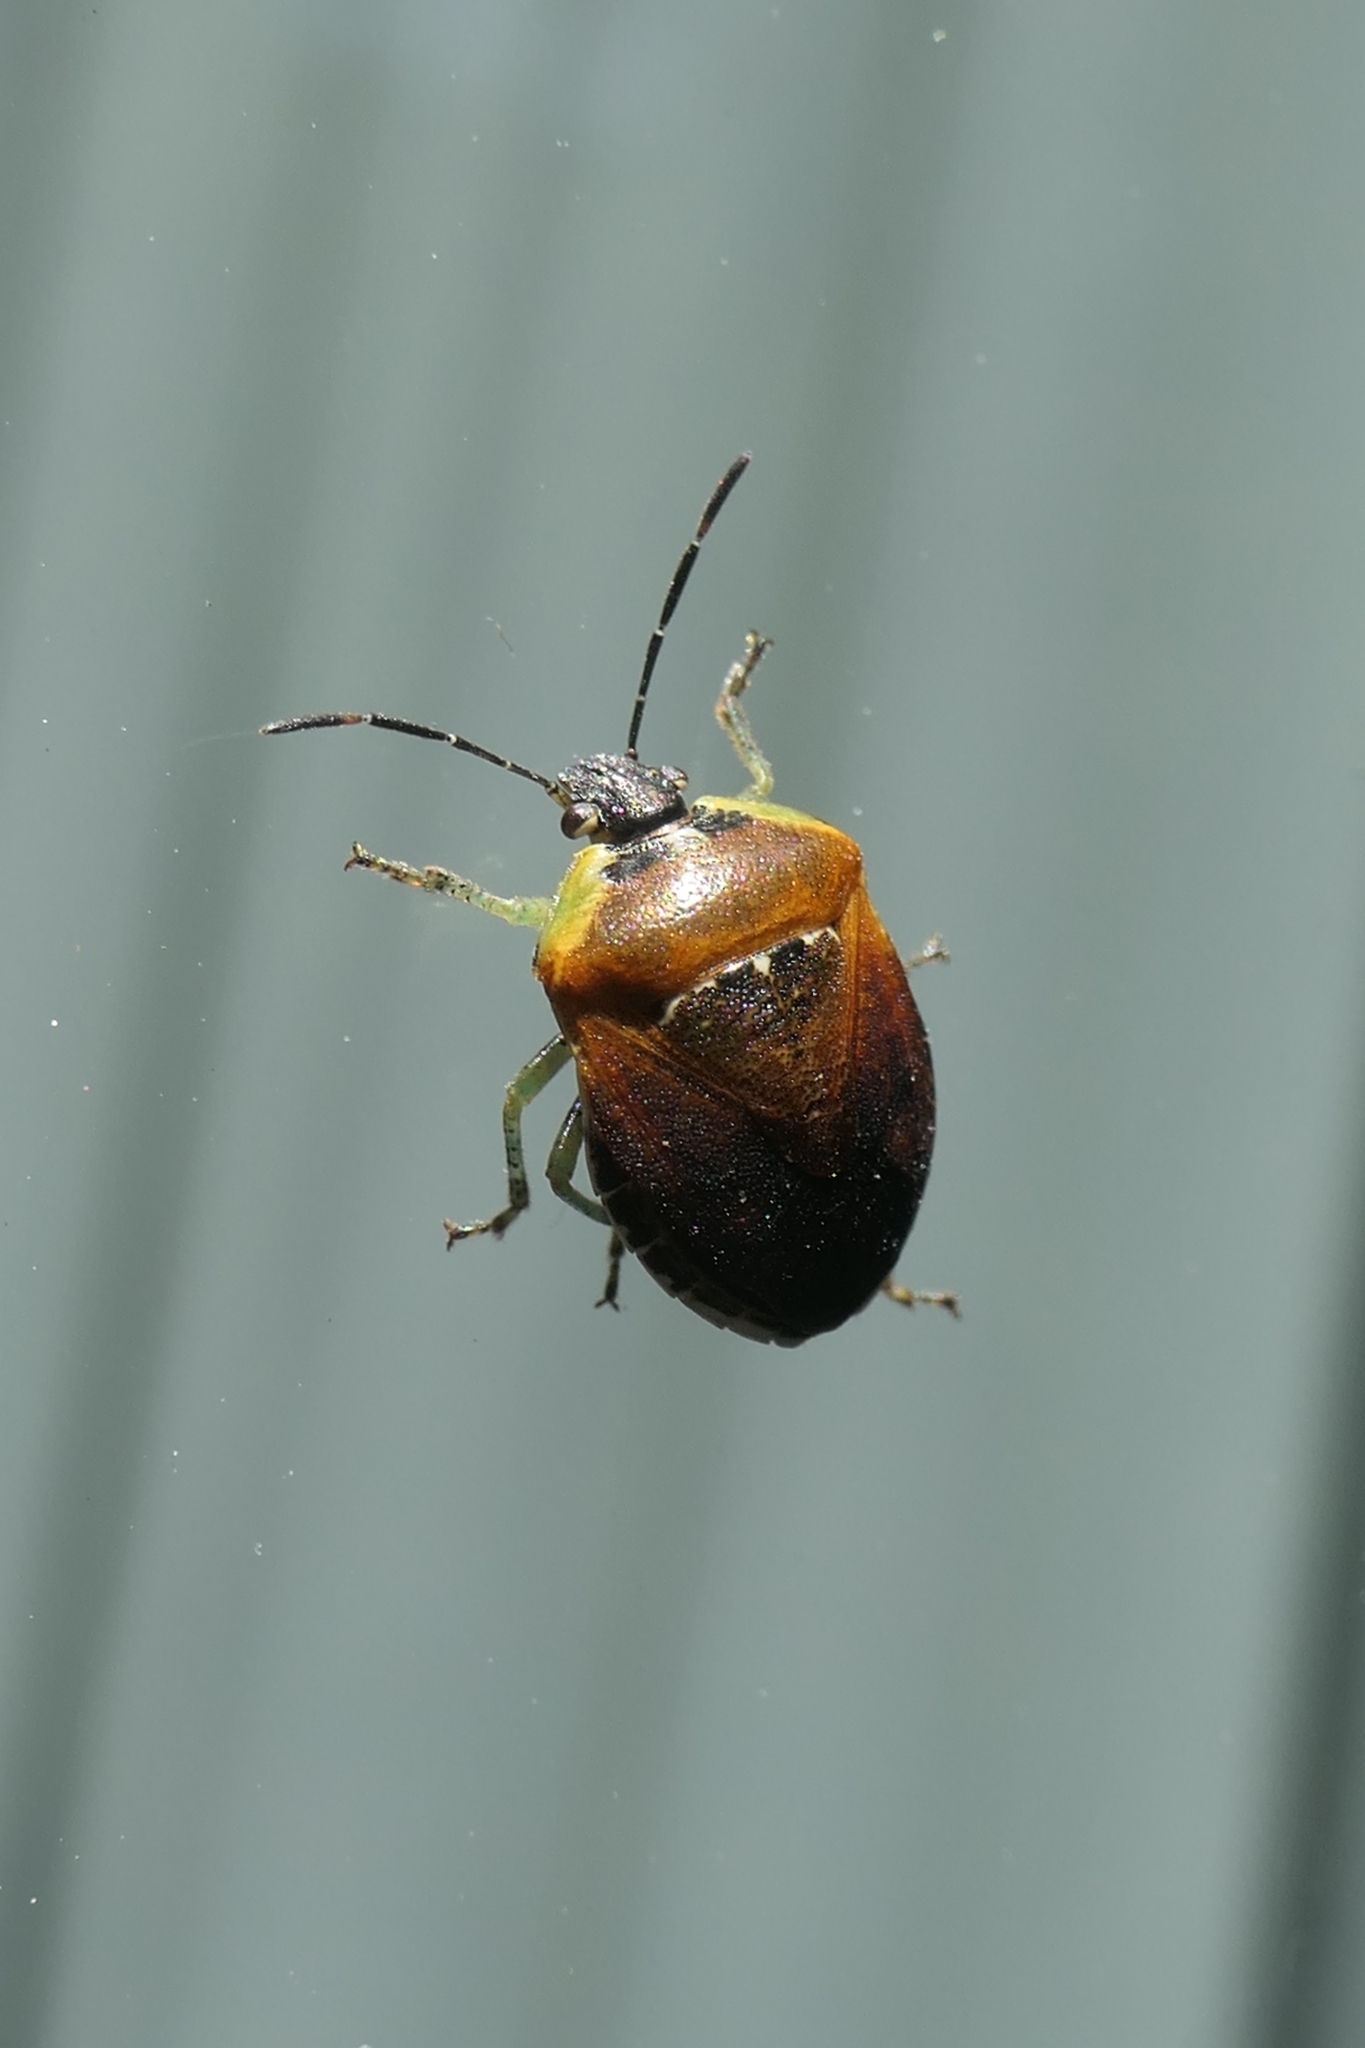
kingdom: Animalia
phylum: Arthropoda
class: Insecta
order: Hemiptera
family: Pentatomidae
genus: Monteithiella
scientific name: Monteithiella
